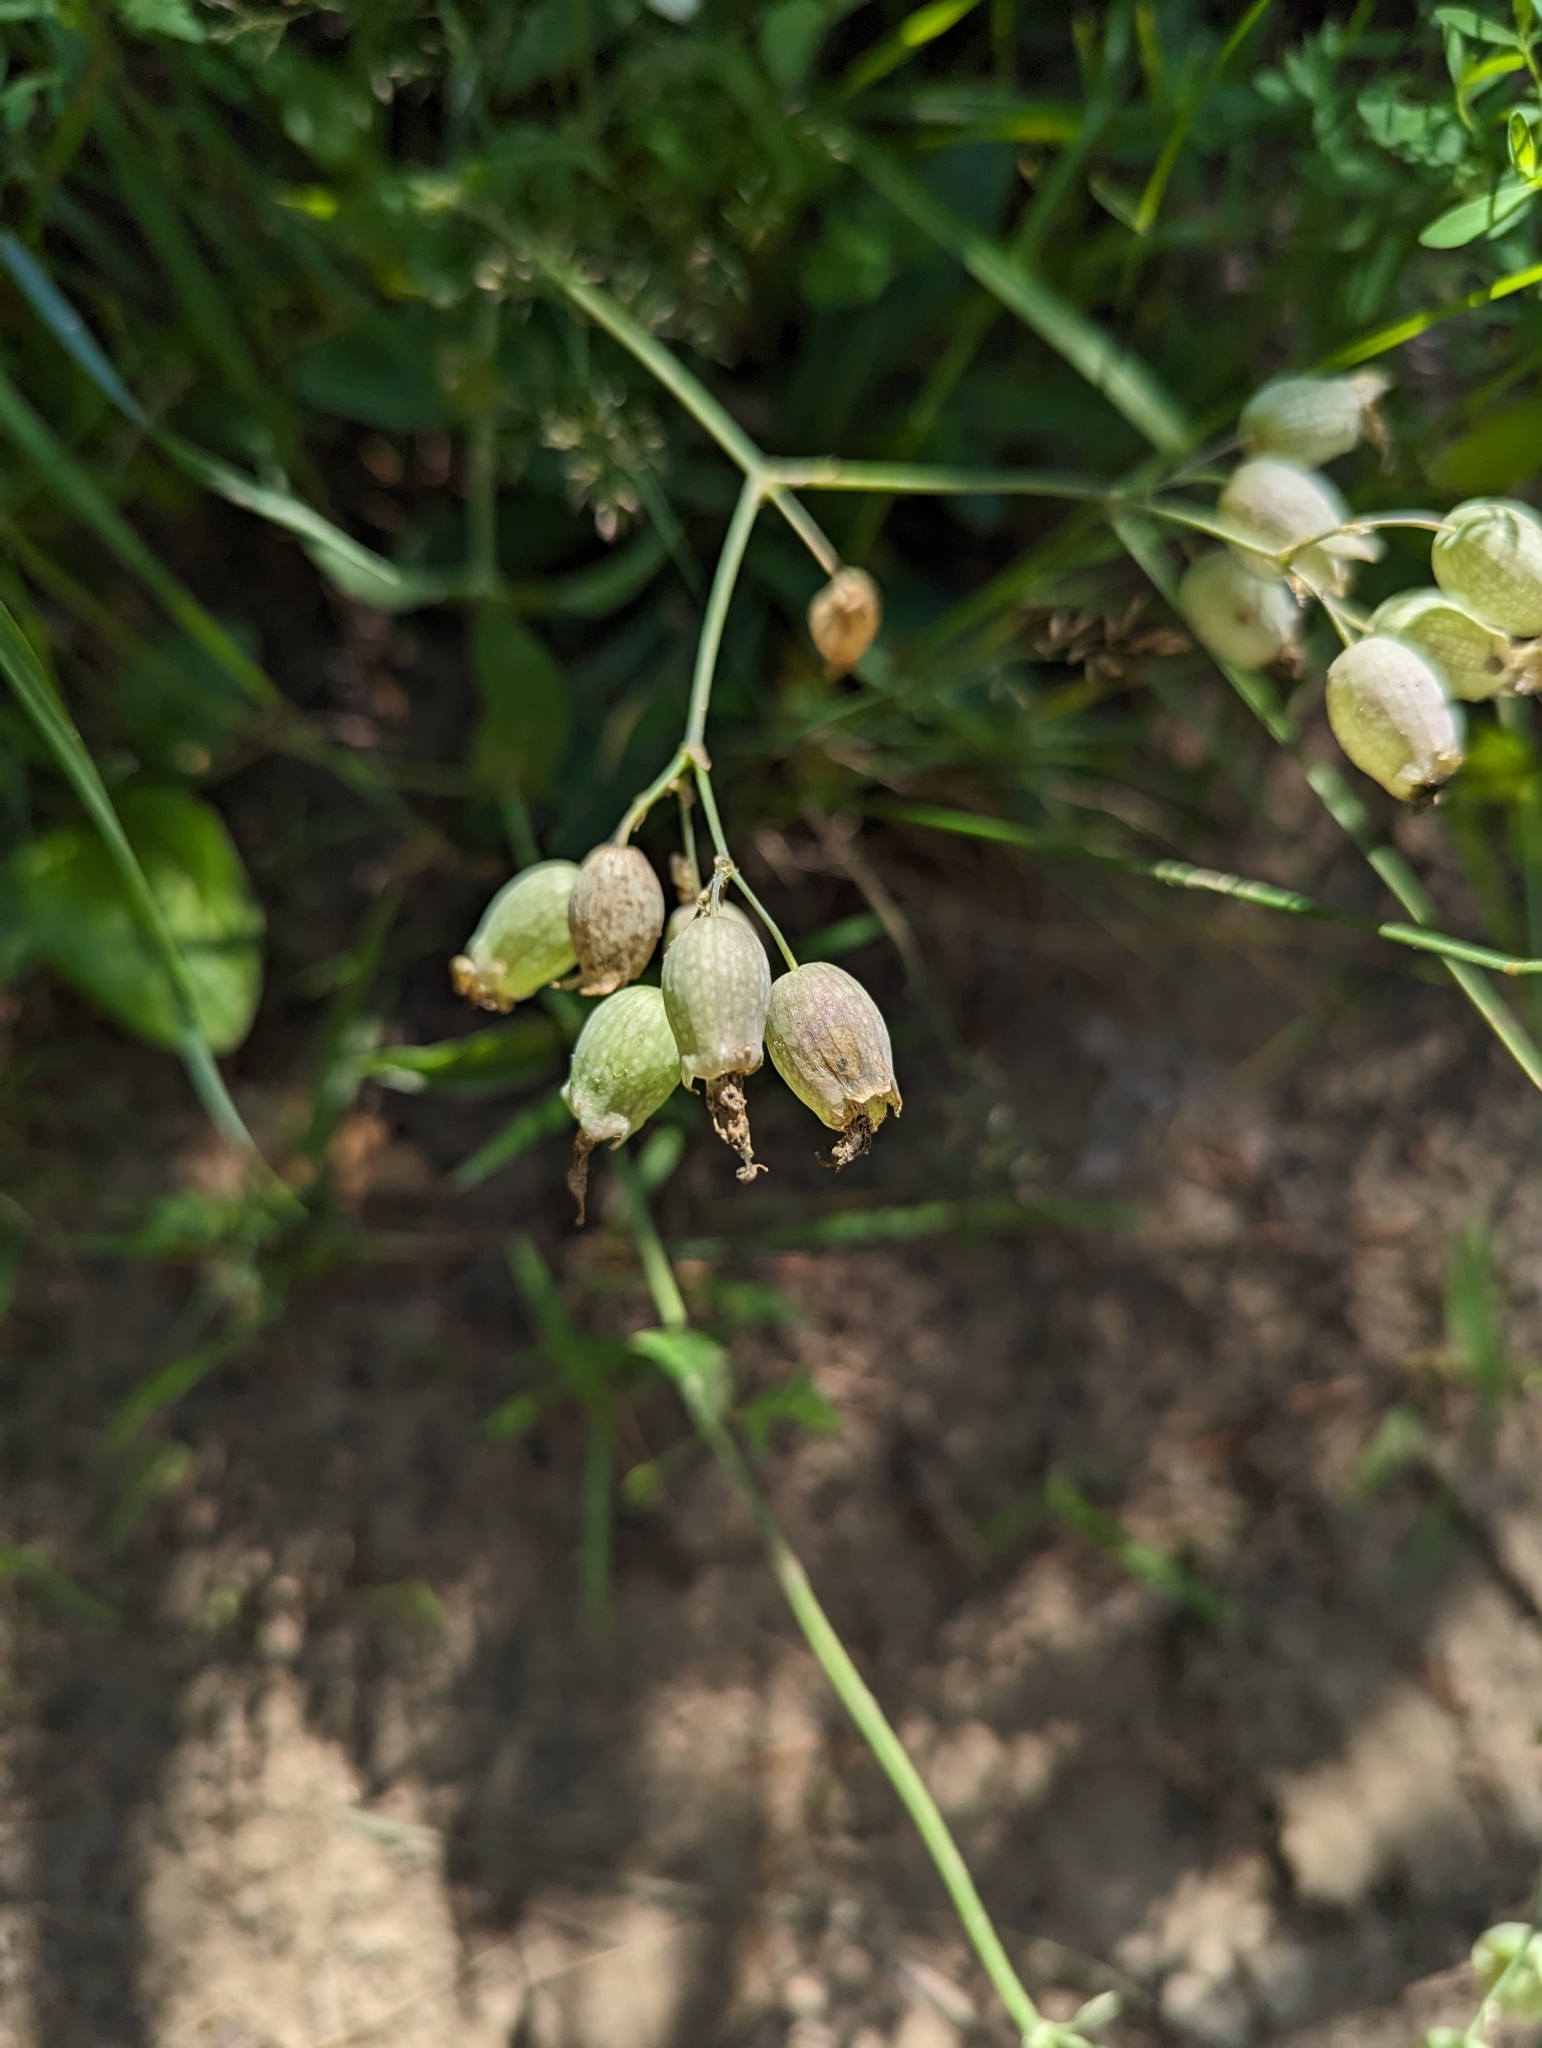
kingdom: Plantae
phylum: Tracheophyta
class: Magnoliopsida
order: Caryophyllales
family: Caryophyllaceae
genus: Silene
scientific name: Silene vulgaris
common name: Bladder campion
